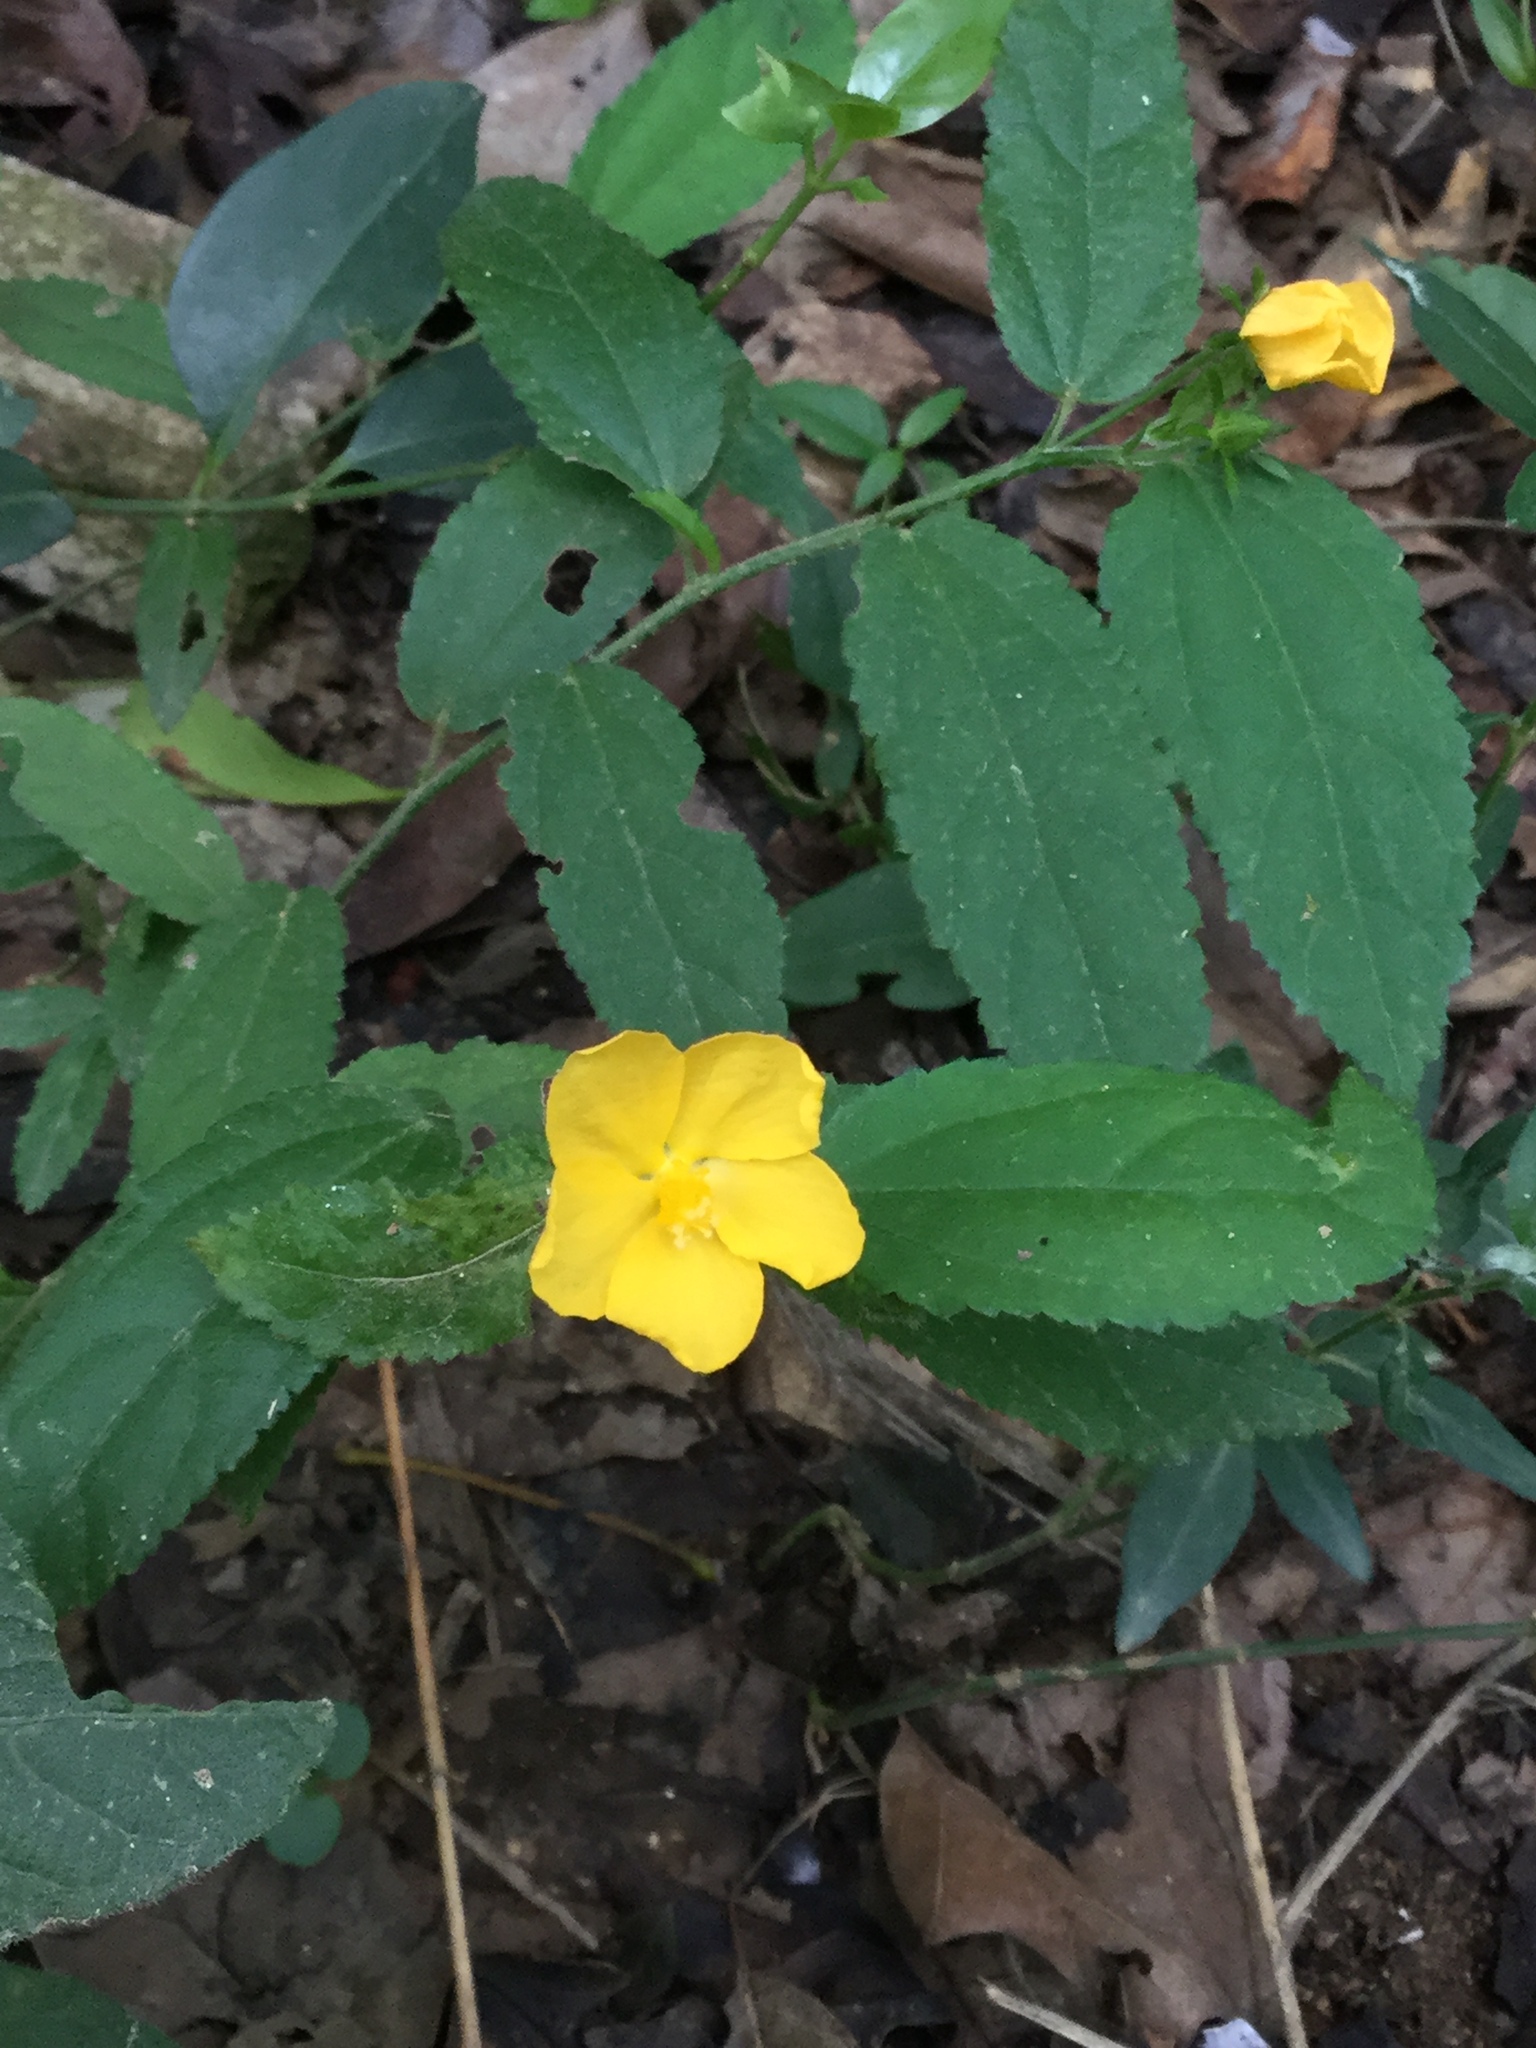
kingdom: Plantae
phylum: Tracheophyta
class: Magnoliopsida
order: Malvales
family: Malvaceae
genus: Pavonia
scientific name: Pavonia uniflora
